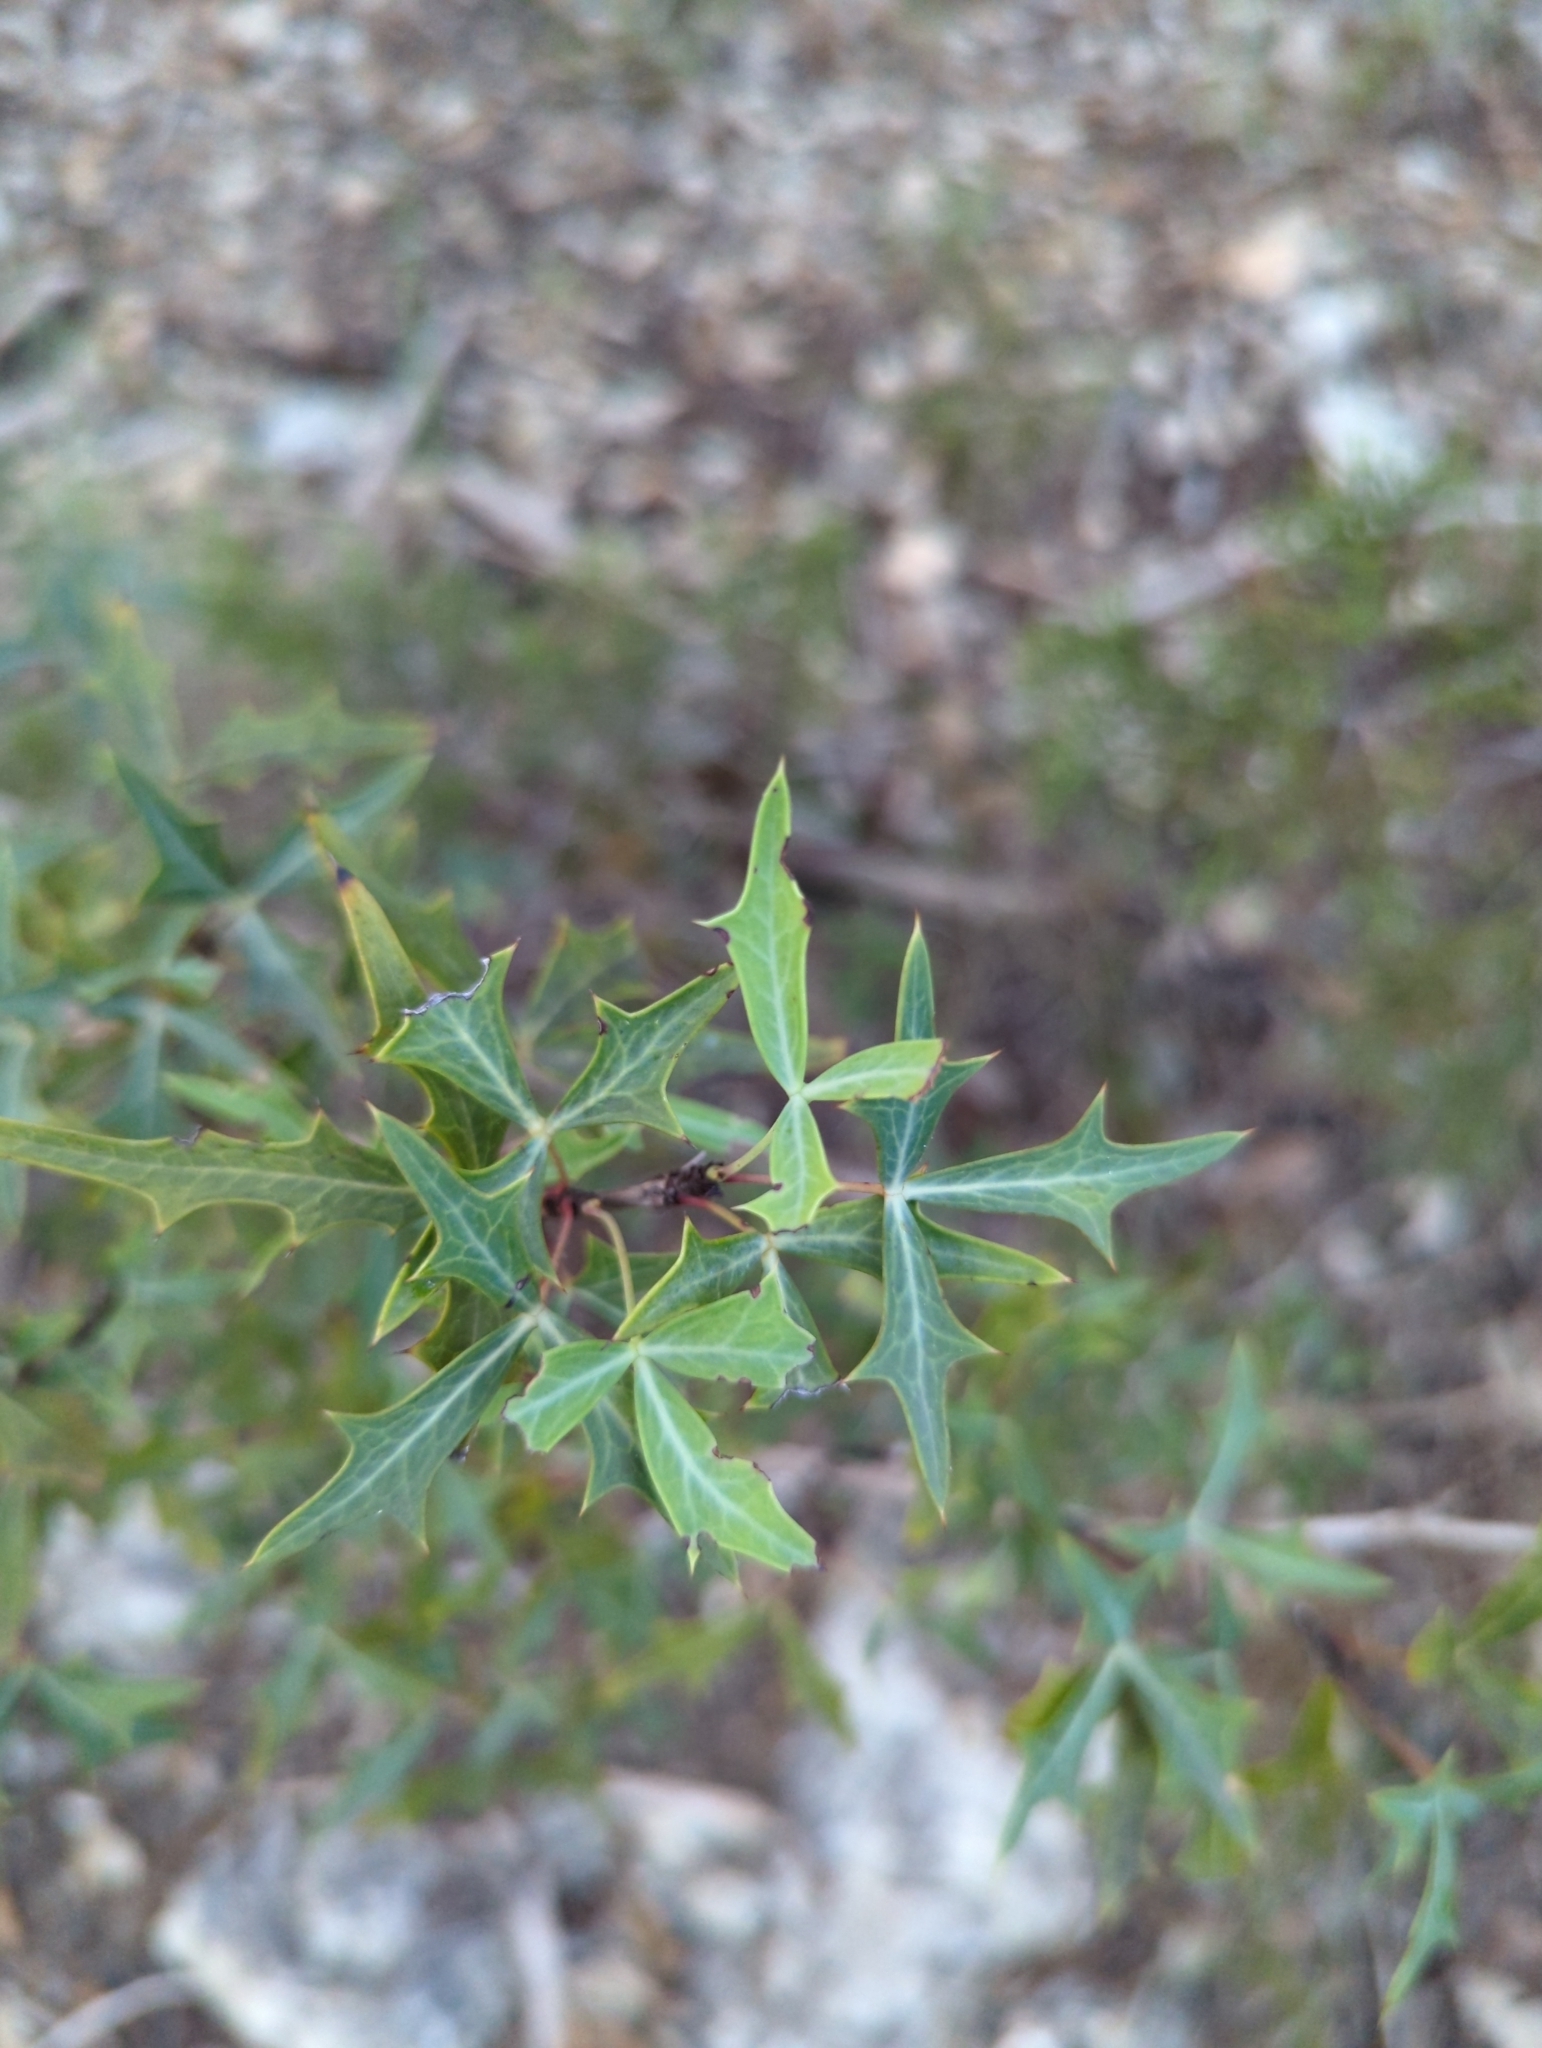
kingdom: Plantae
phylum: Tracheophyta
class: Magnoliopsida
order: Ranunculales
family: Berberidaceae
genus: Alloberberis
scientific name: Alloberberis trifoliolata
